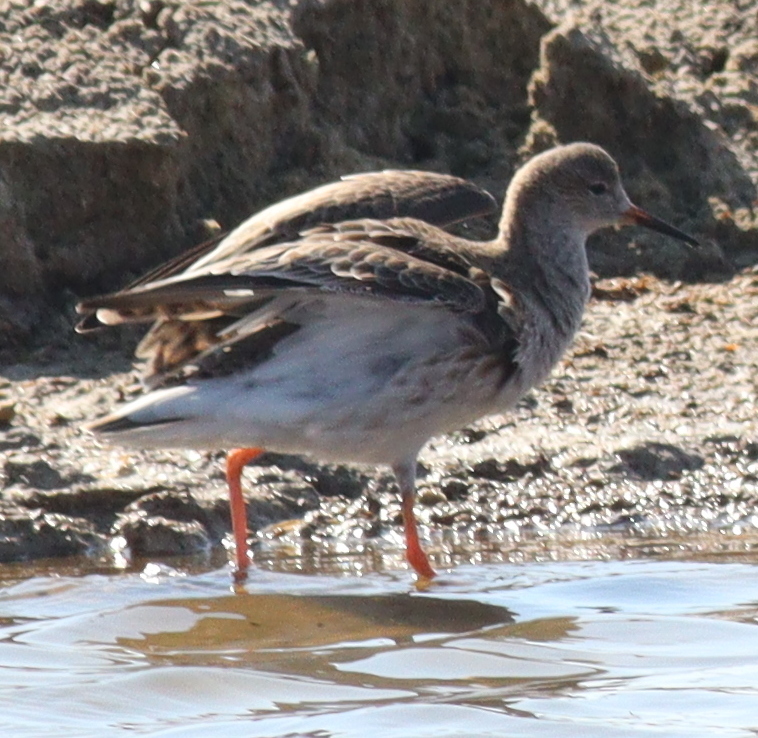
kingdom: Animalia
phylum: Chordata
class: Aves
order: Charadriiformes
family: Scolopacidae
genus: Calidris
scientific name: Calidris pugnax
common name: Ruff
